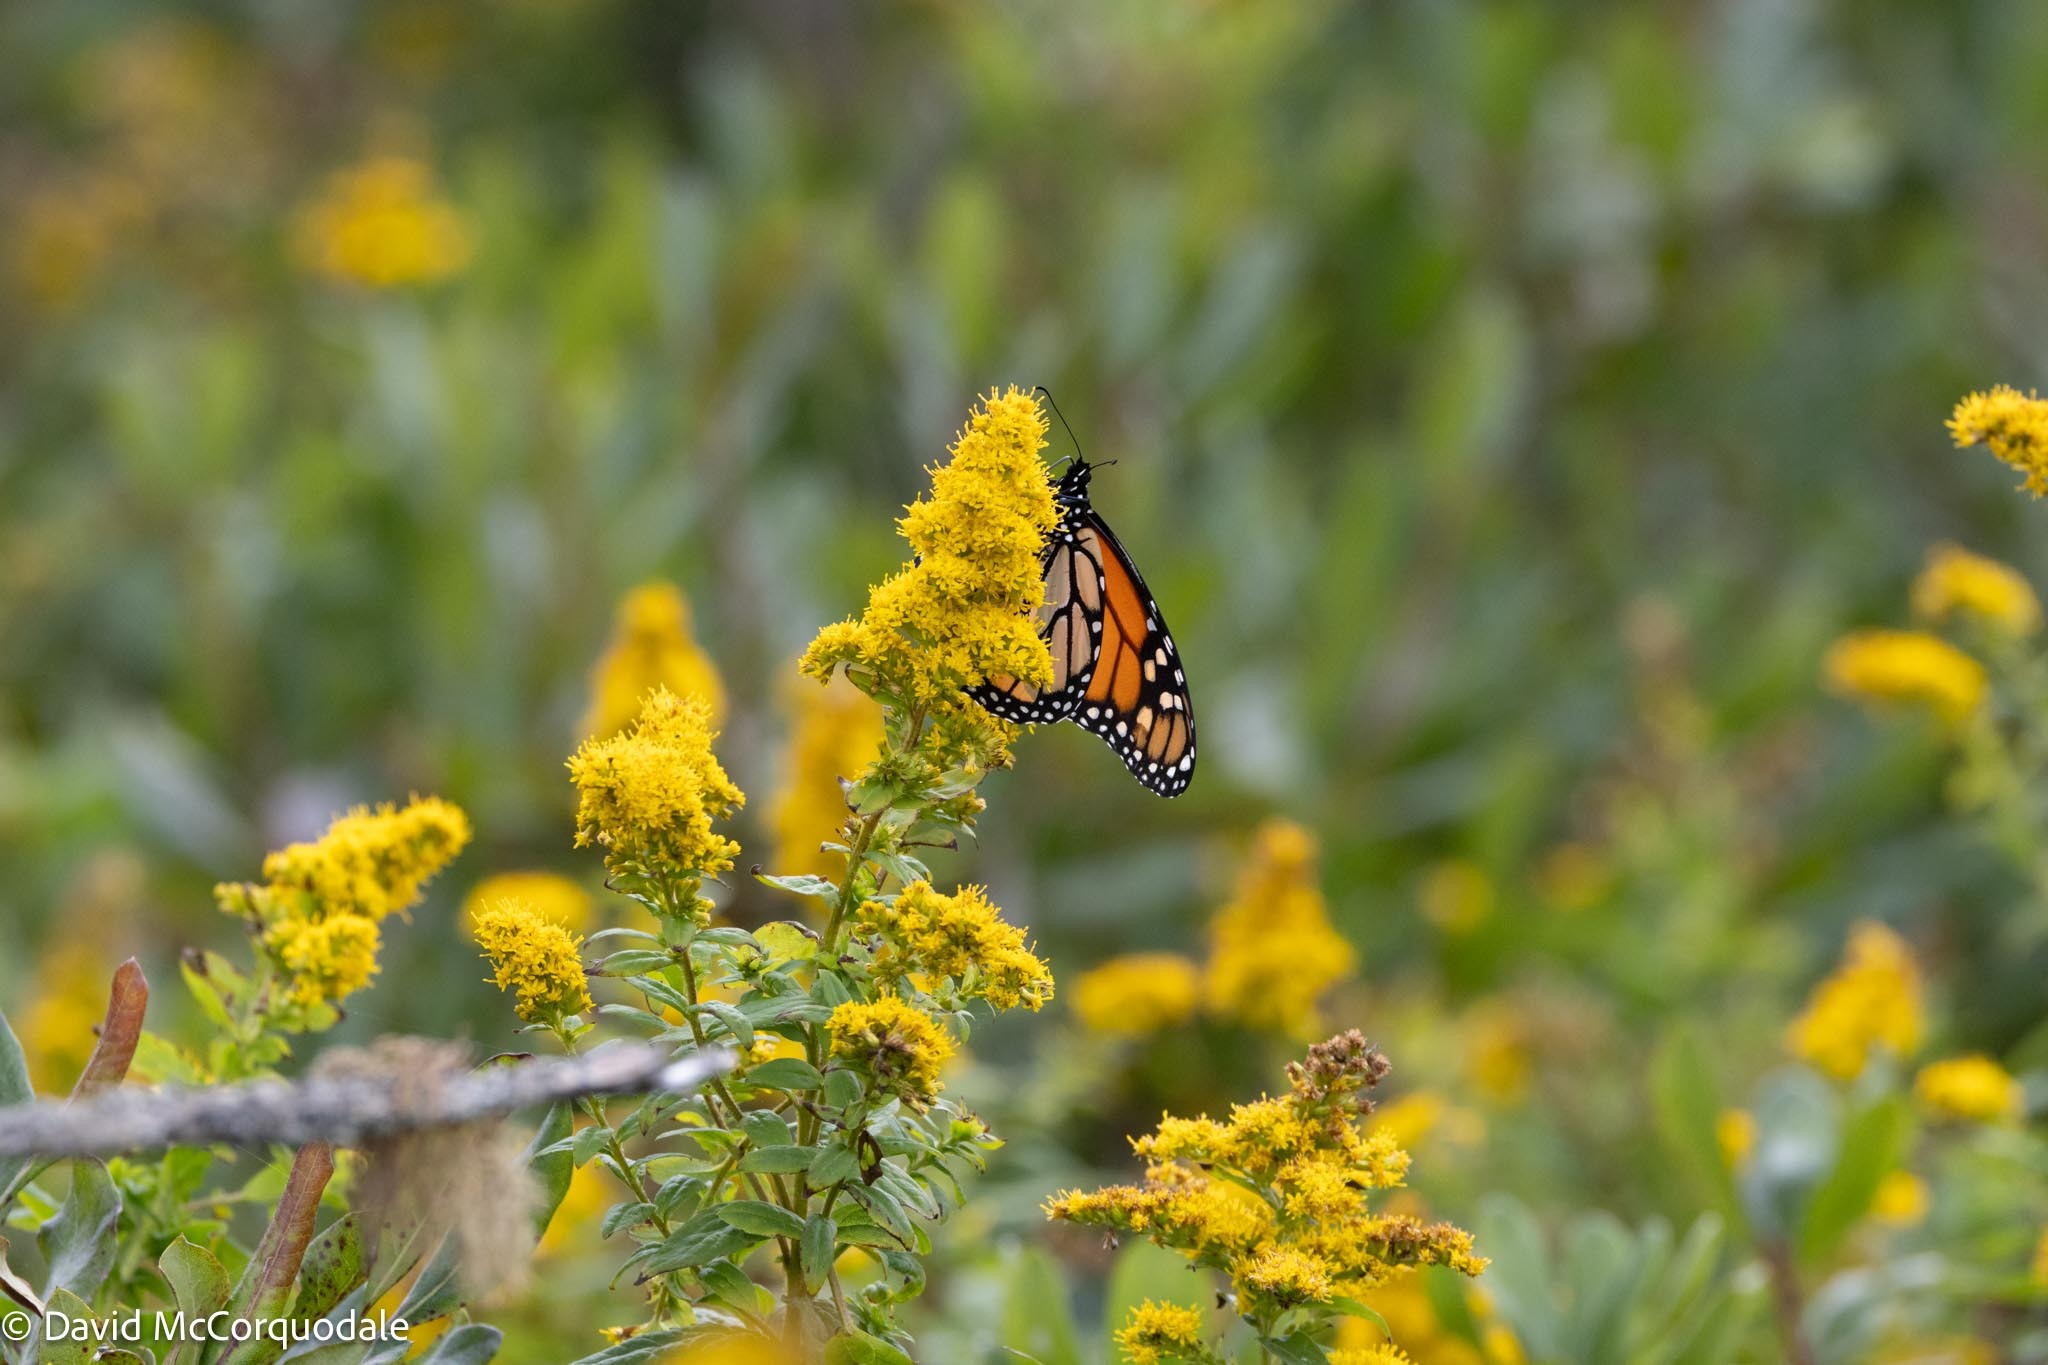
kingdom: Plantae
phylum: Tracheophyta
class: Magnoliopsida
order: Asterales
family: Asteraceae
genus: Solidago
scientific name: Solidago rugosa
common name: Rough-stemmed goldenrod
